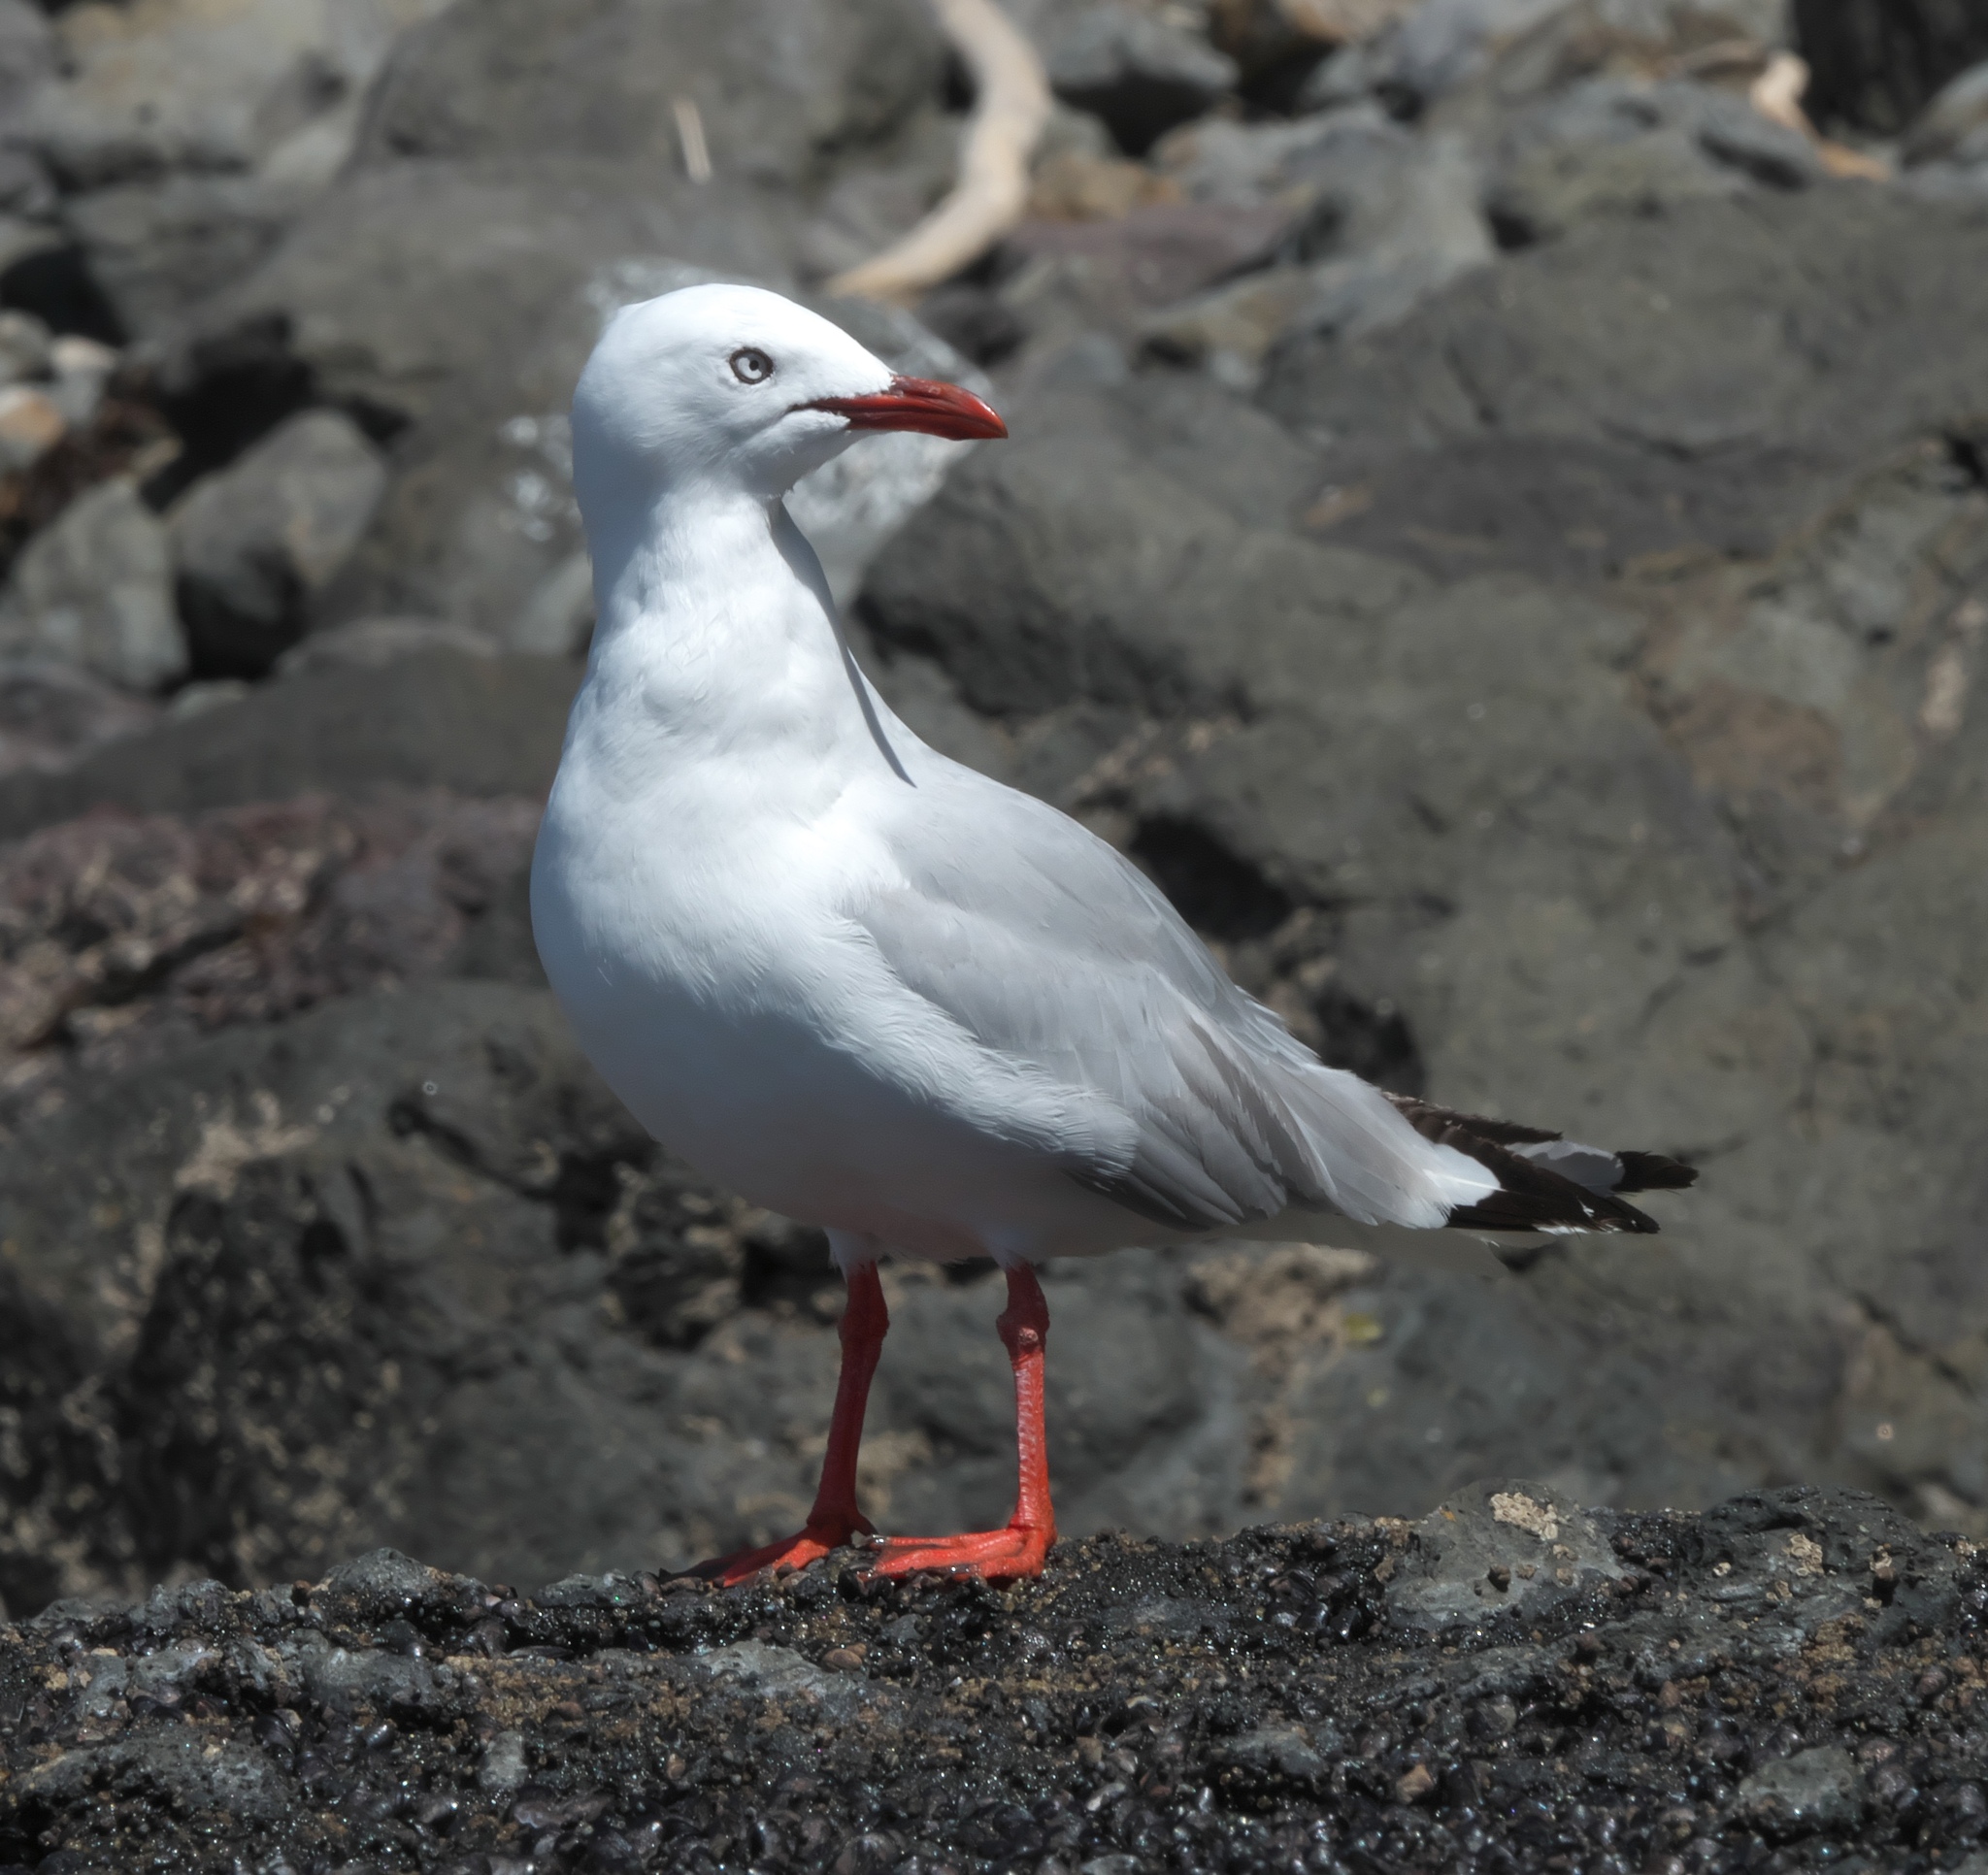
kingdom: Animalia
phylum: Chordata
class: Aves
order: Charadriiformes
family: Laridae
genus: Chroicocephalus
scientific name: Chroicocephalus novaehollandiae
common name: Silver gull
